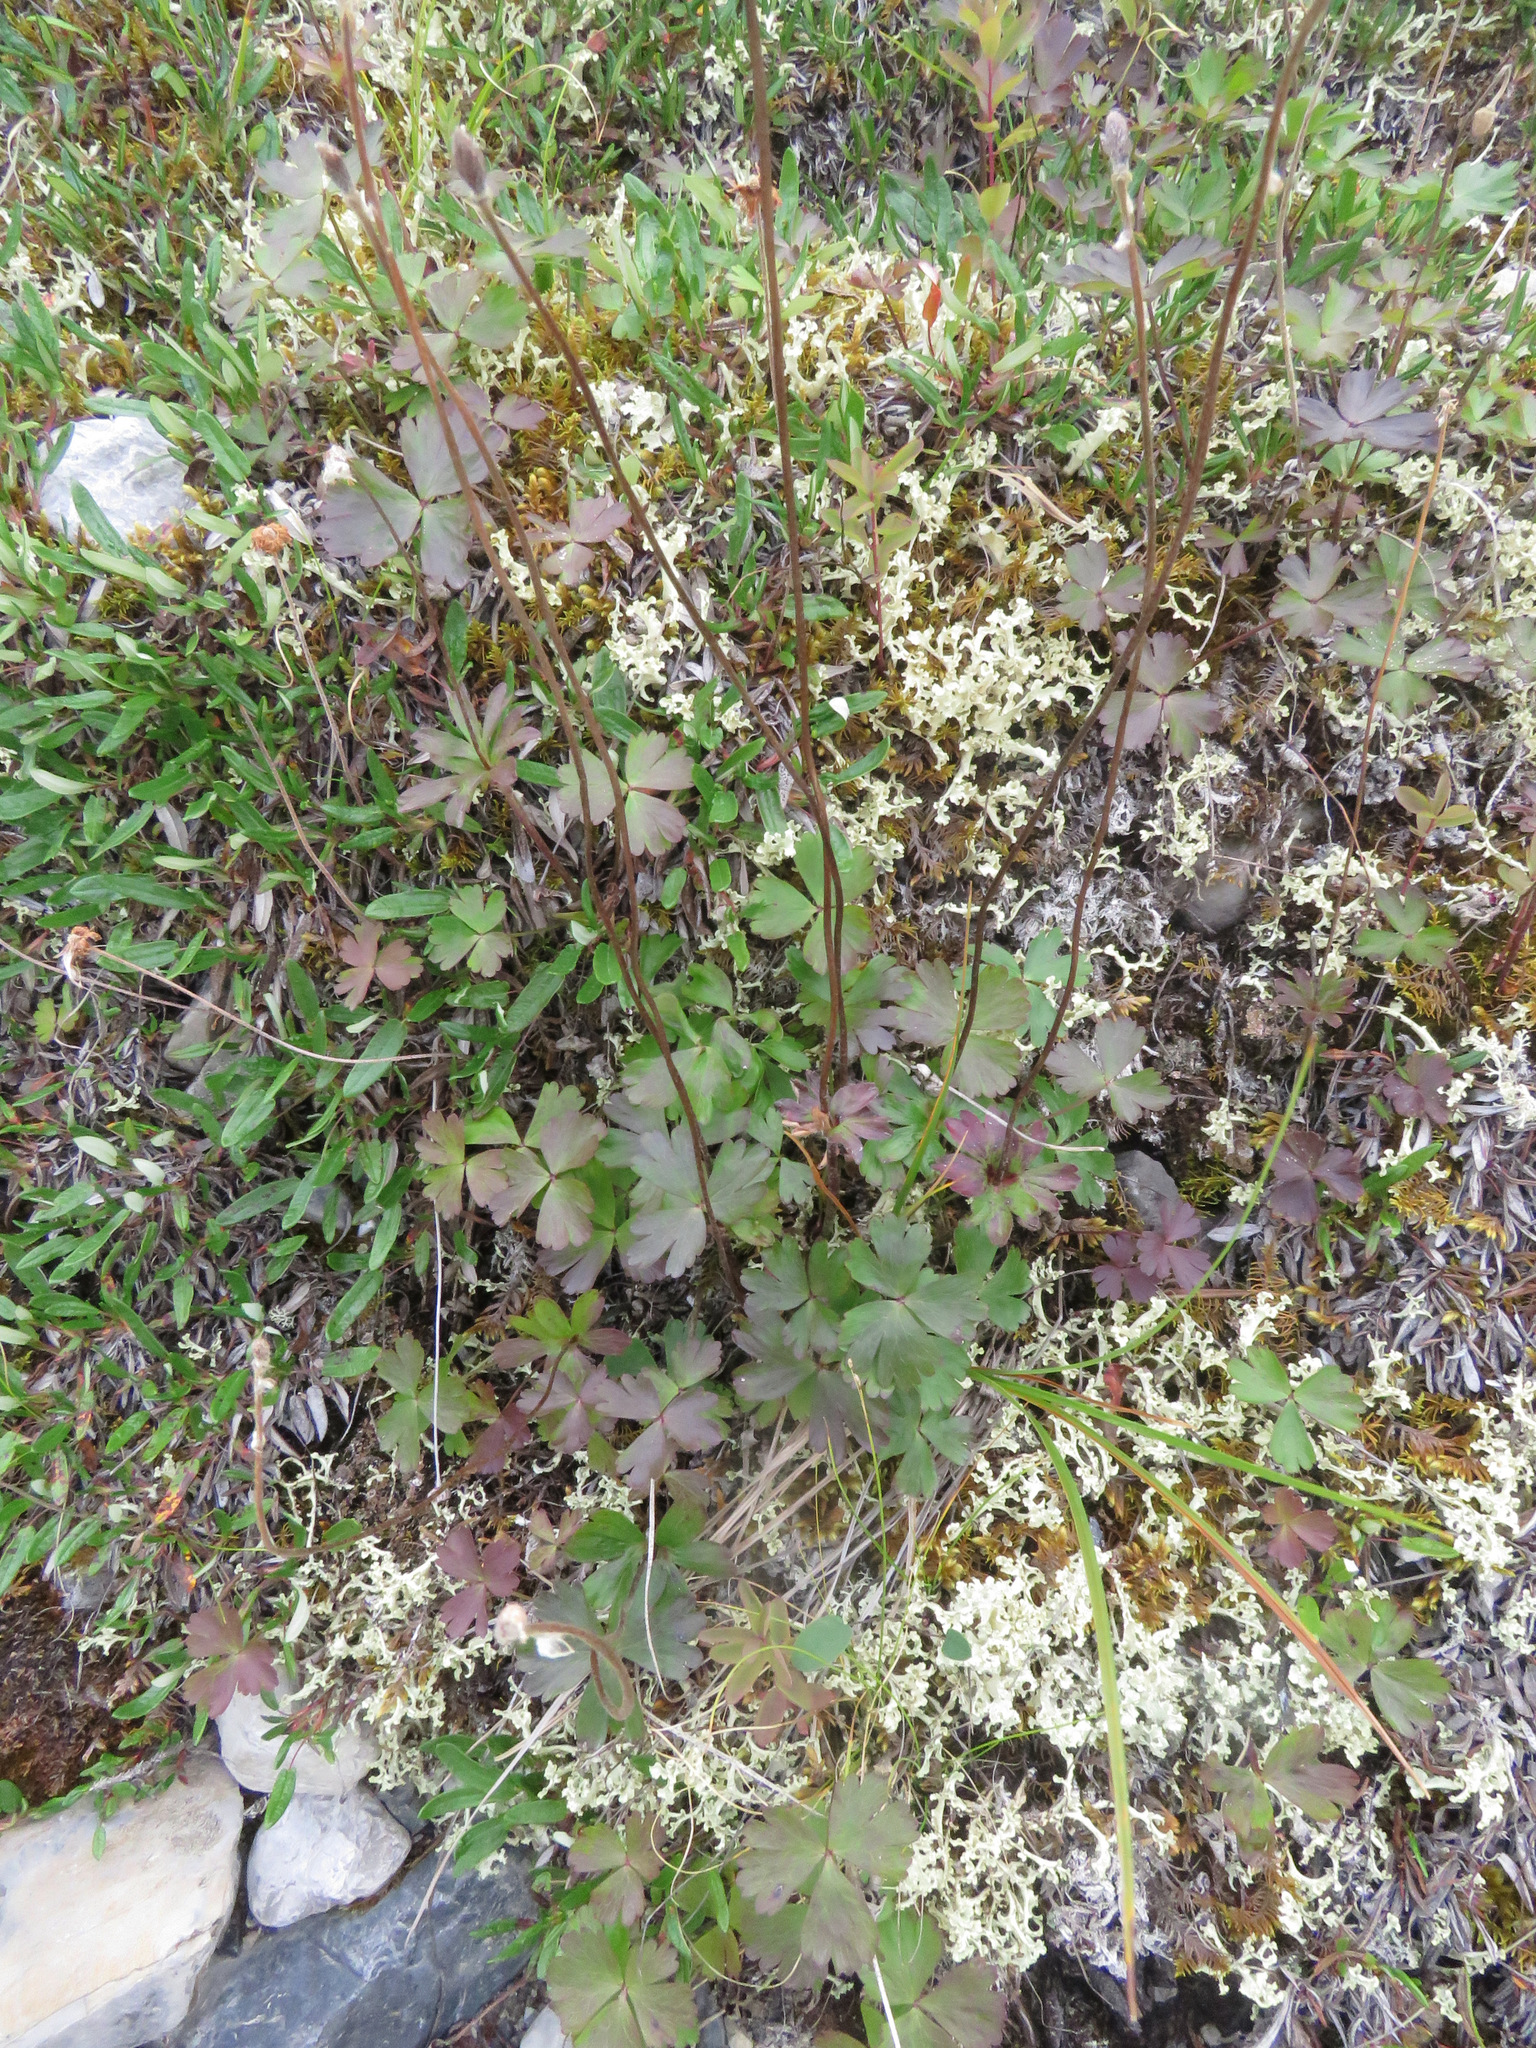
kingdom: Plantae
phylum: Tracheophyta
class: Magnoliopsida
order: Ranunculales
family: Ranunculaceae
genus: Anemone
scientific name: Anemone parviflora
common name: Northern anemone
